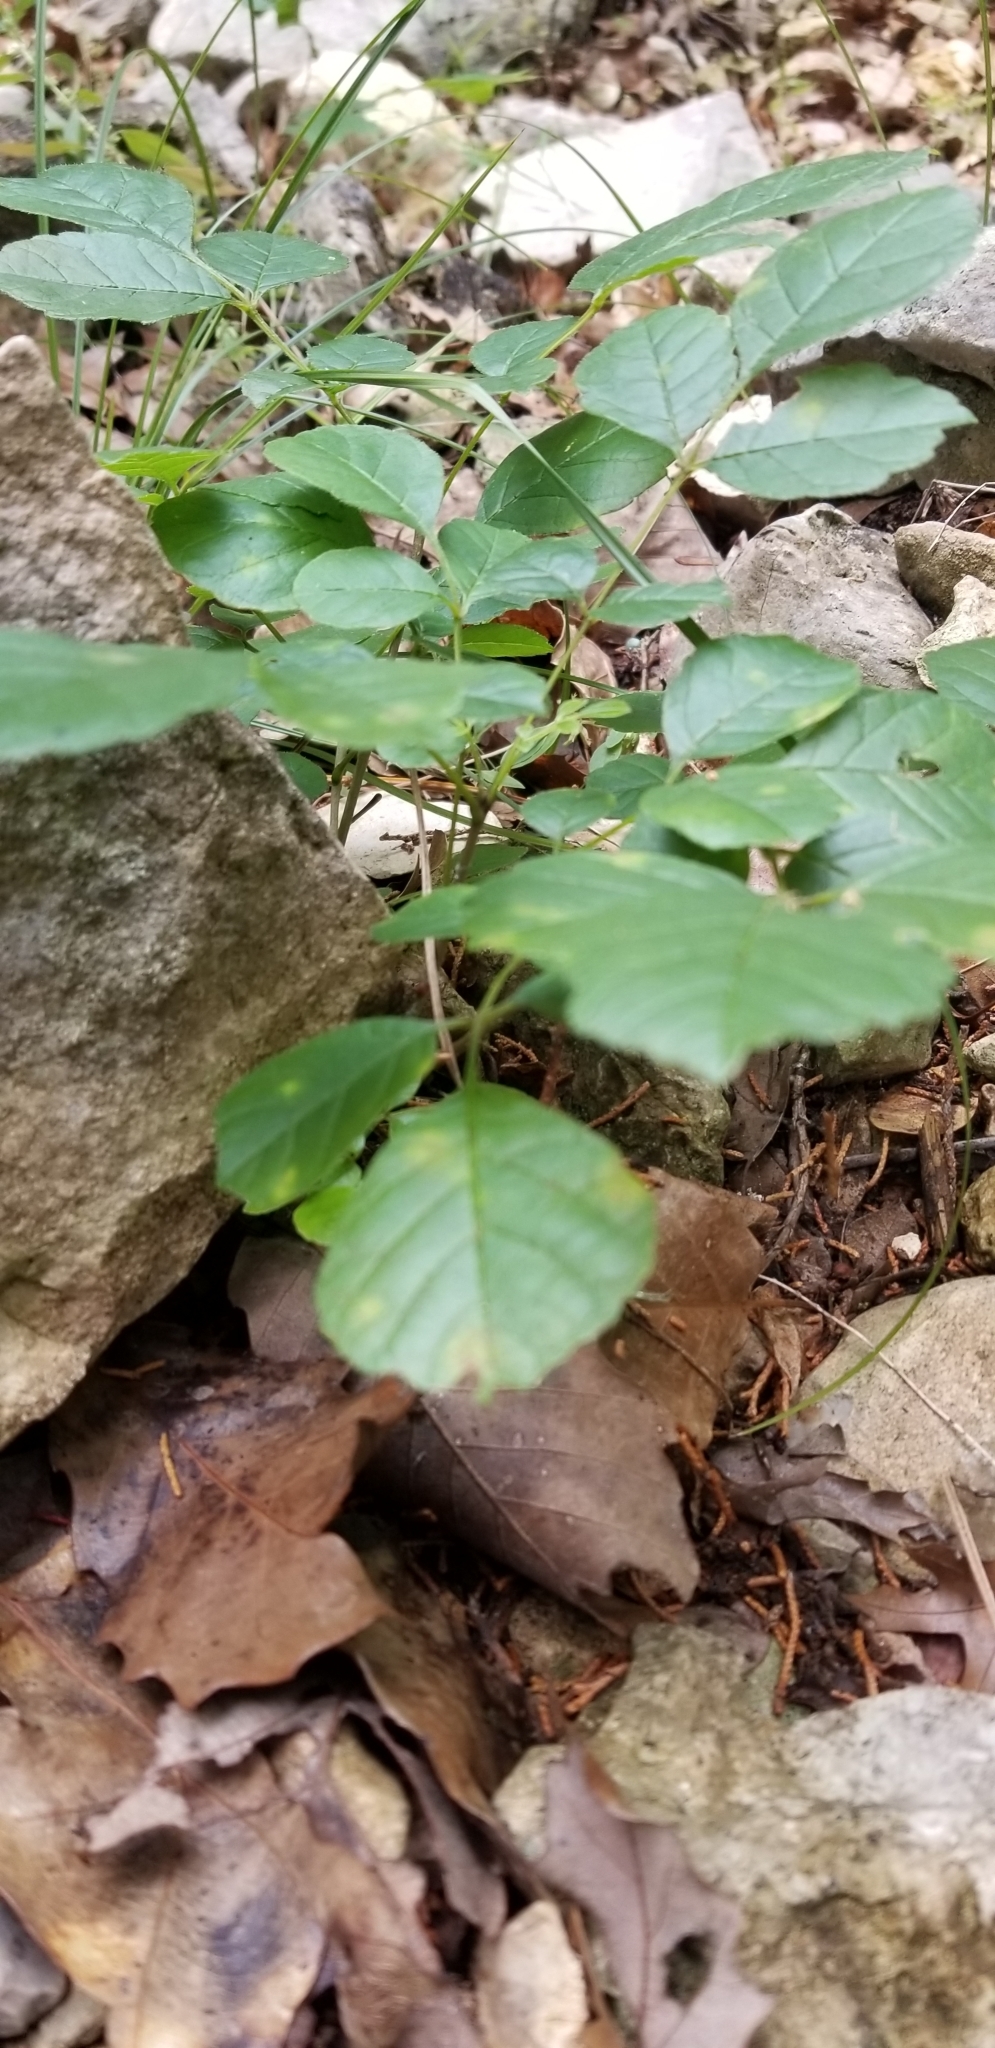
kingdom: Plantae
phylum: Tracheophyta
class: Magnoliopsida
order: Lamiales
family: Oleaceae
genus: Fraxinus
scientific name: Fraxinus albicans
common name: Texas ash
